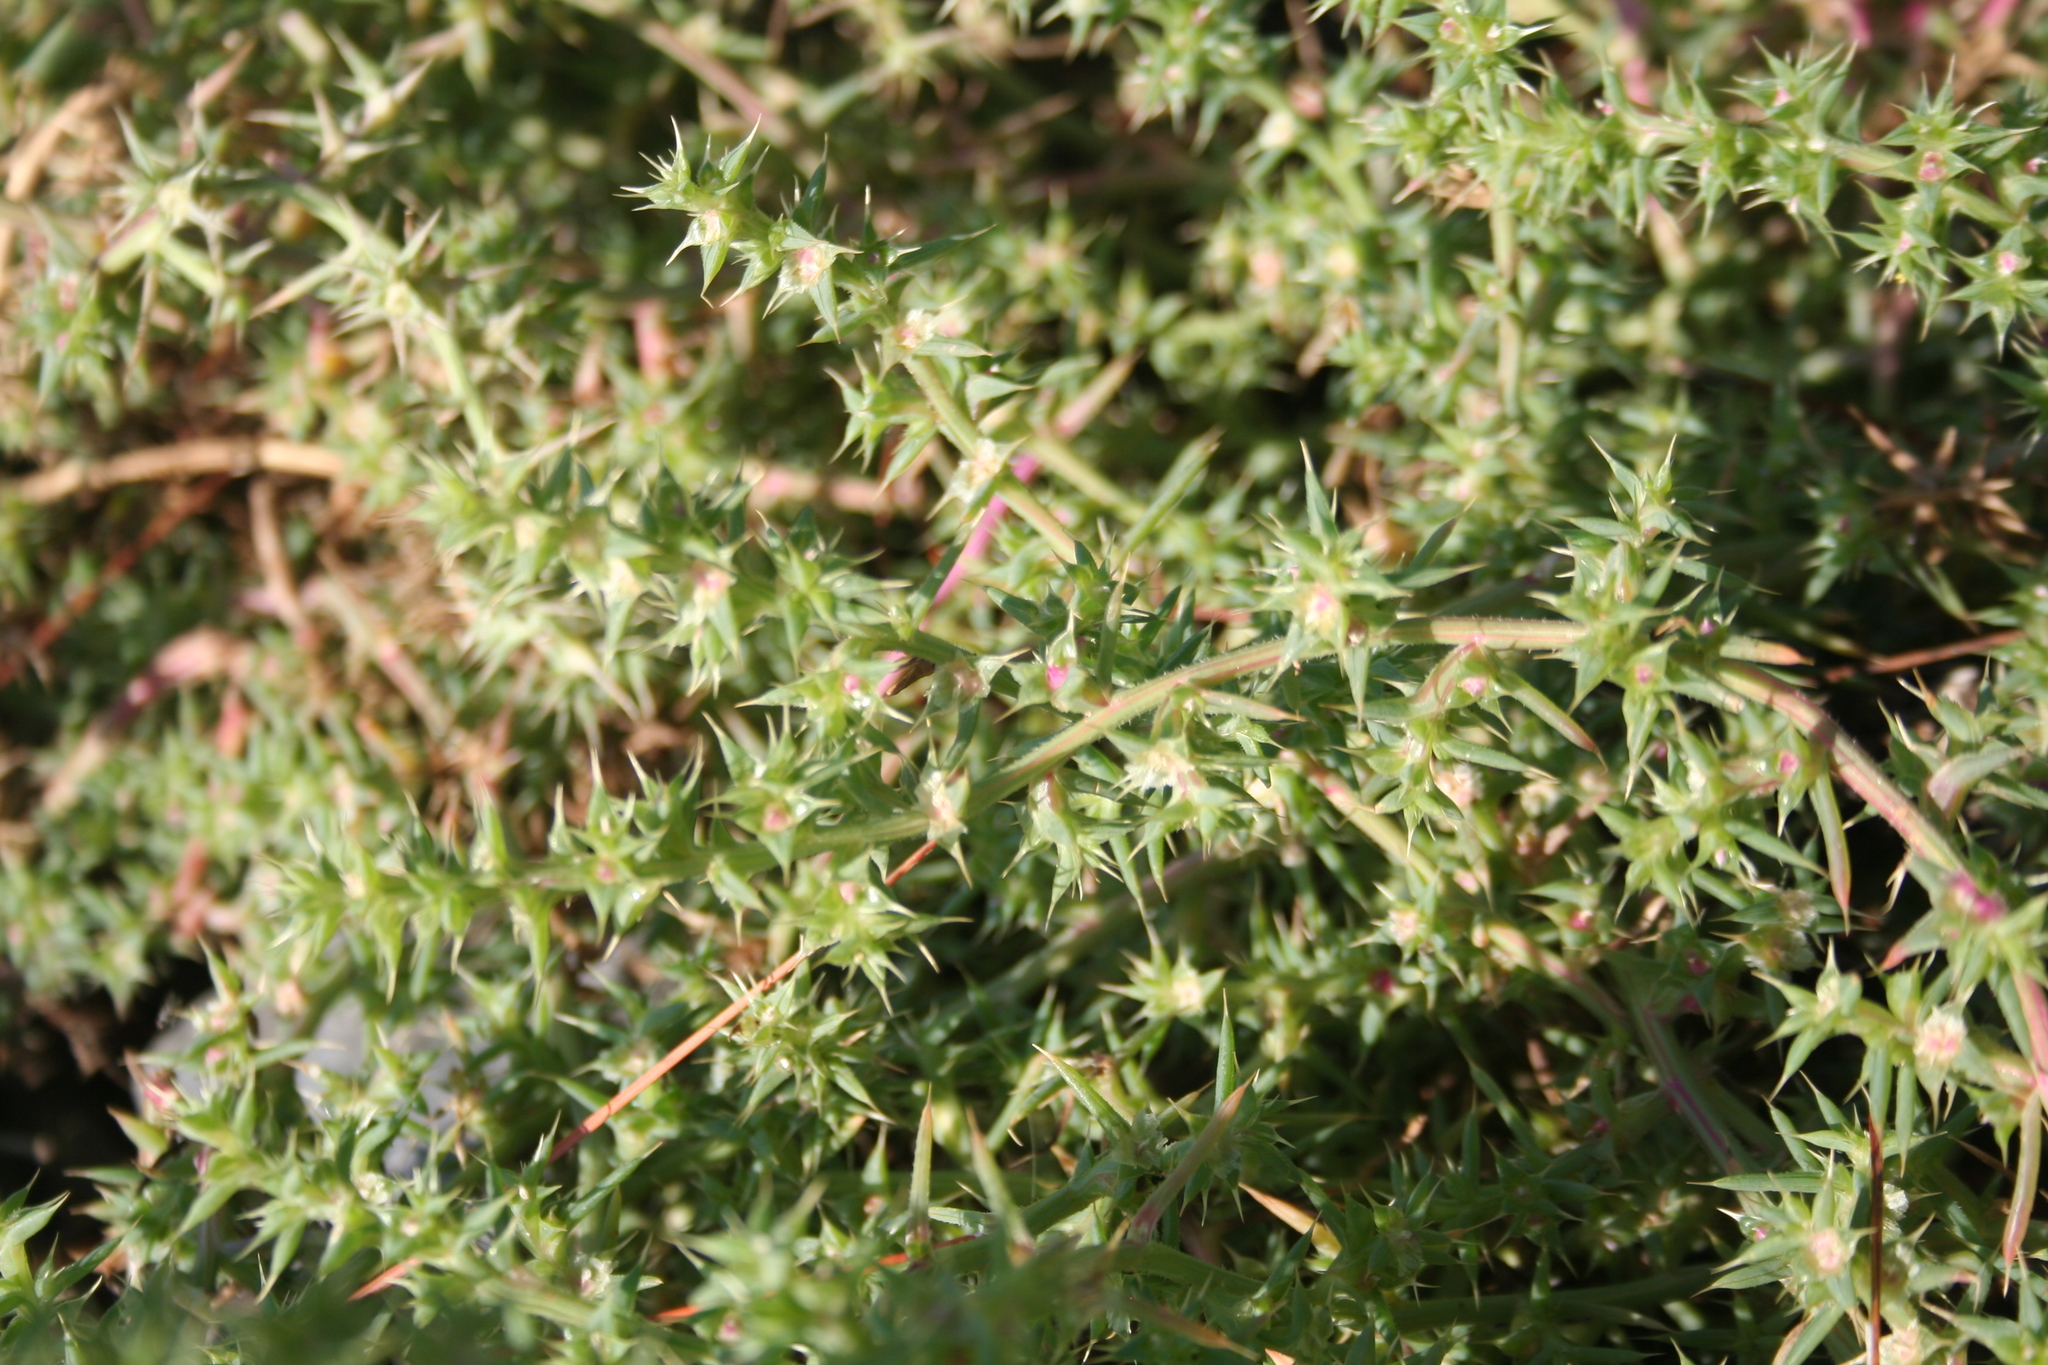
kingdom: Plantae
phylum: Tracheophyta
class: Magnoliopsida
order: Caryophyllales
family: Amaranthaceae
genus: Salsola
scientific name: Salsola kali
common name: Saltwort
